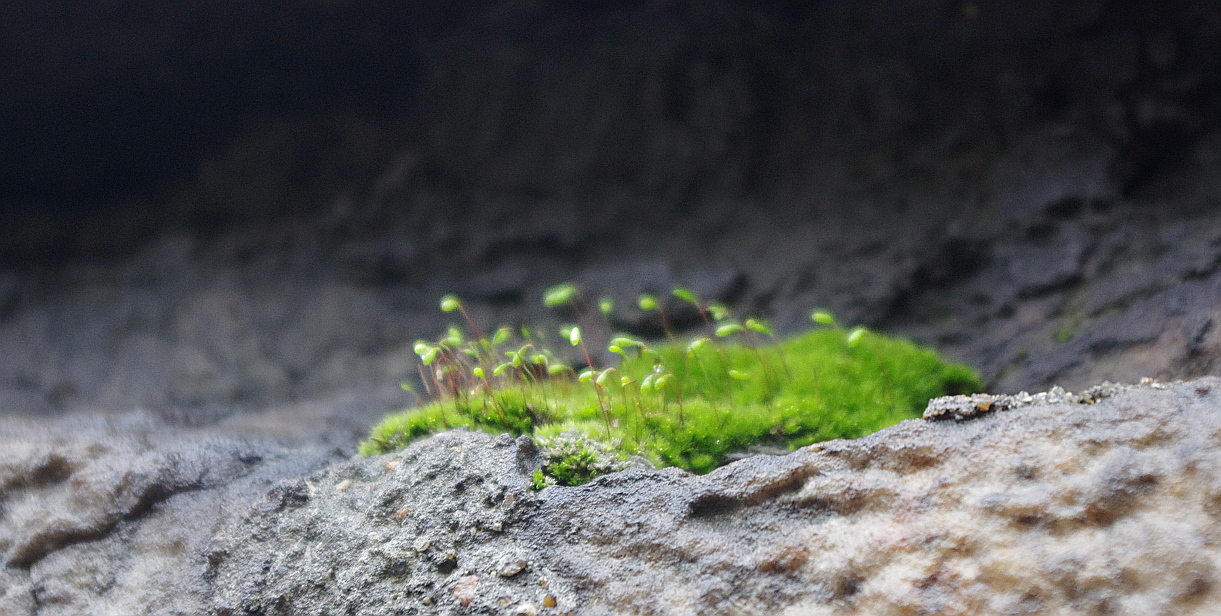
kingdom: Plantae
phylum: Bryophyta
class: Bryopsida
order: Funariales
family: Funariaceae
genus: Funaria
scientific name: Funaria hygrometrica
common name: Common cord moss
